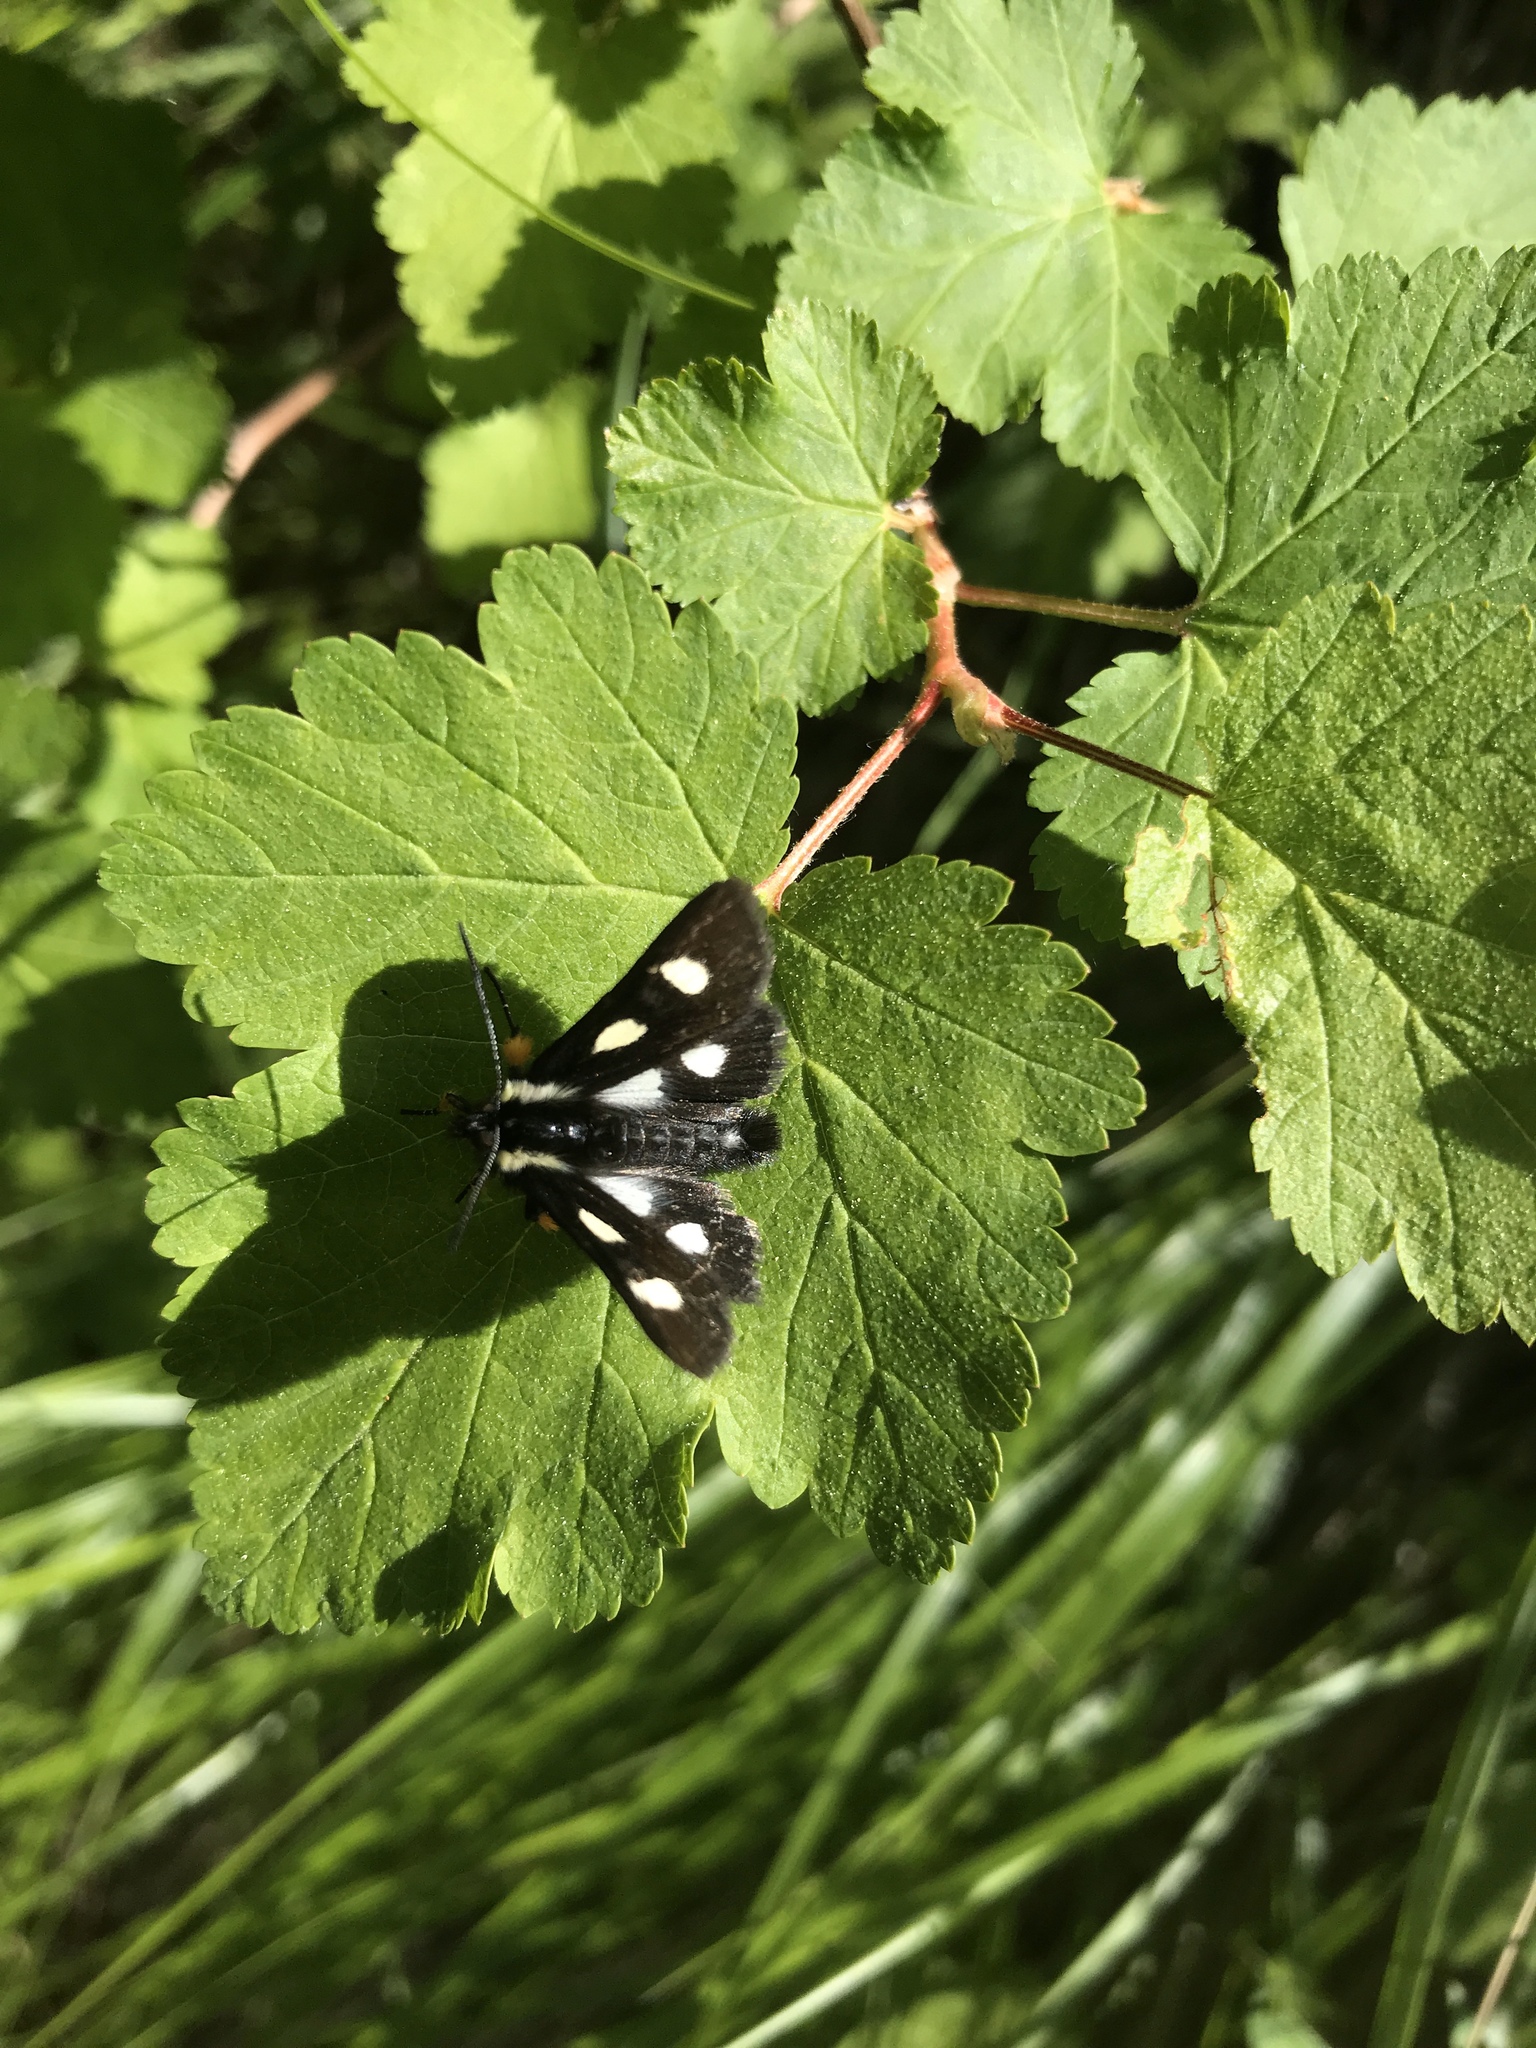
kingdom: Animalia
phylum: Arthropoda
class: Insecta
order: Lepidoptera
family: Noctuidae
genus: Alypia
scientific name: Alypia langtonii
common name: Fireweed caterpillar
